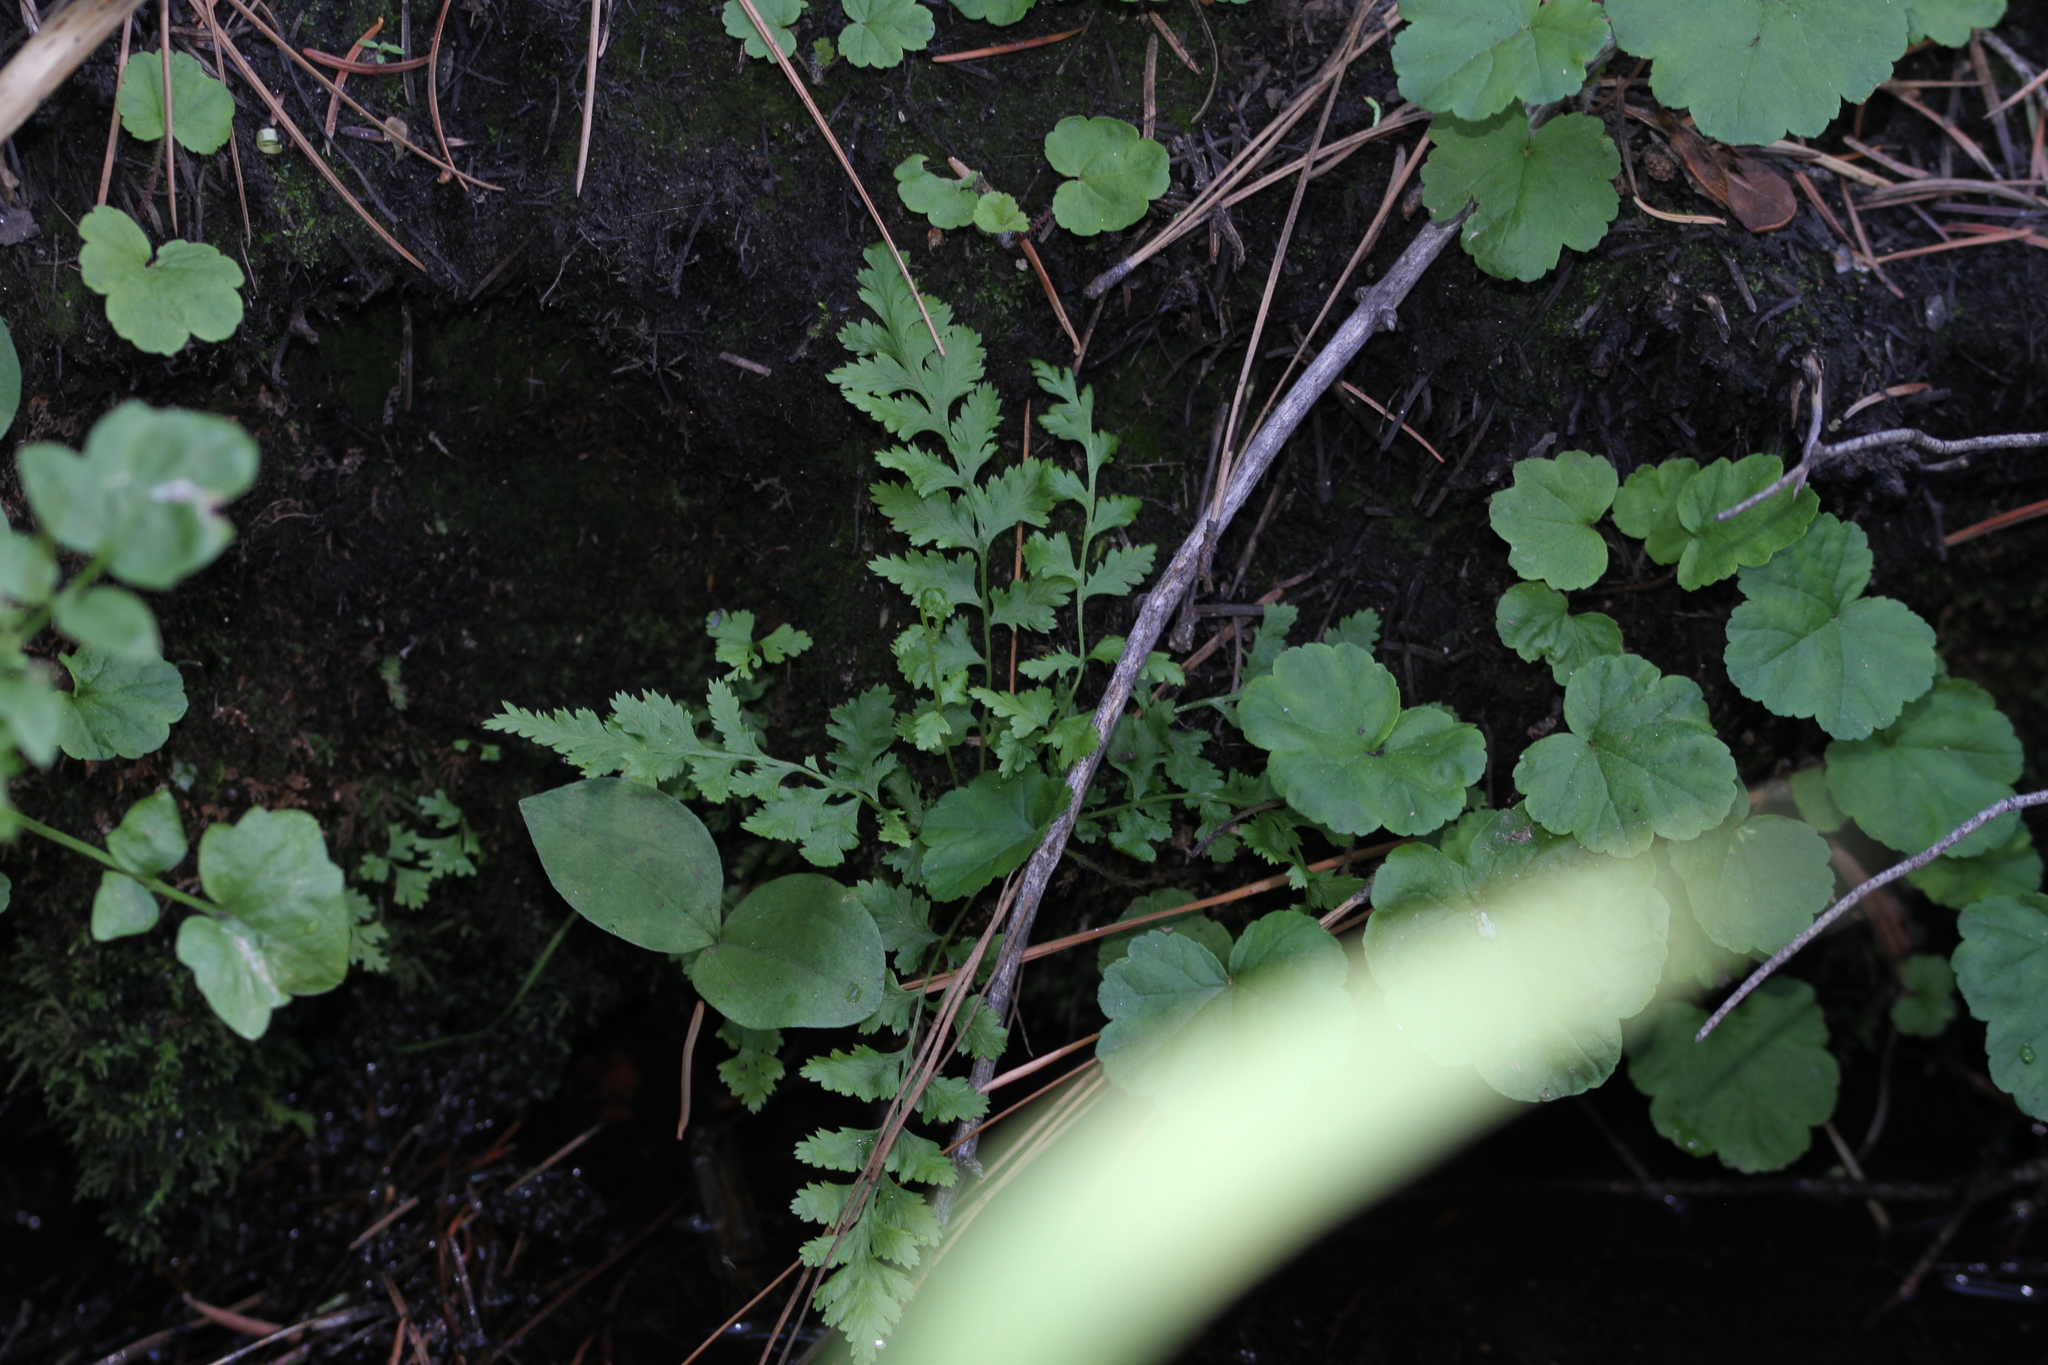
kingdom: Plantae
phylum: Tracheophyta
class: Liliopsida
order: Asparagales
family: Orchidaceae
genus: Neottia
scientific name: Neottia convallarioides
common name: Broadleaf twayblade
